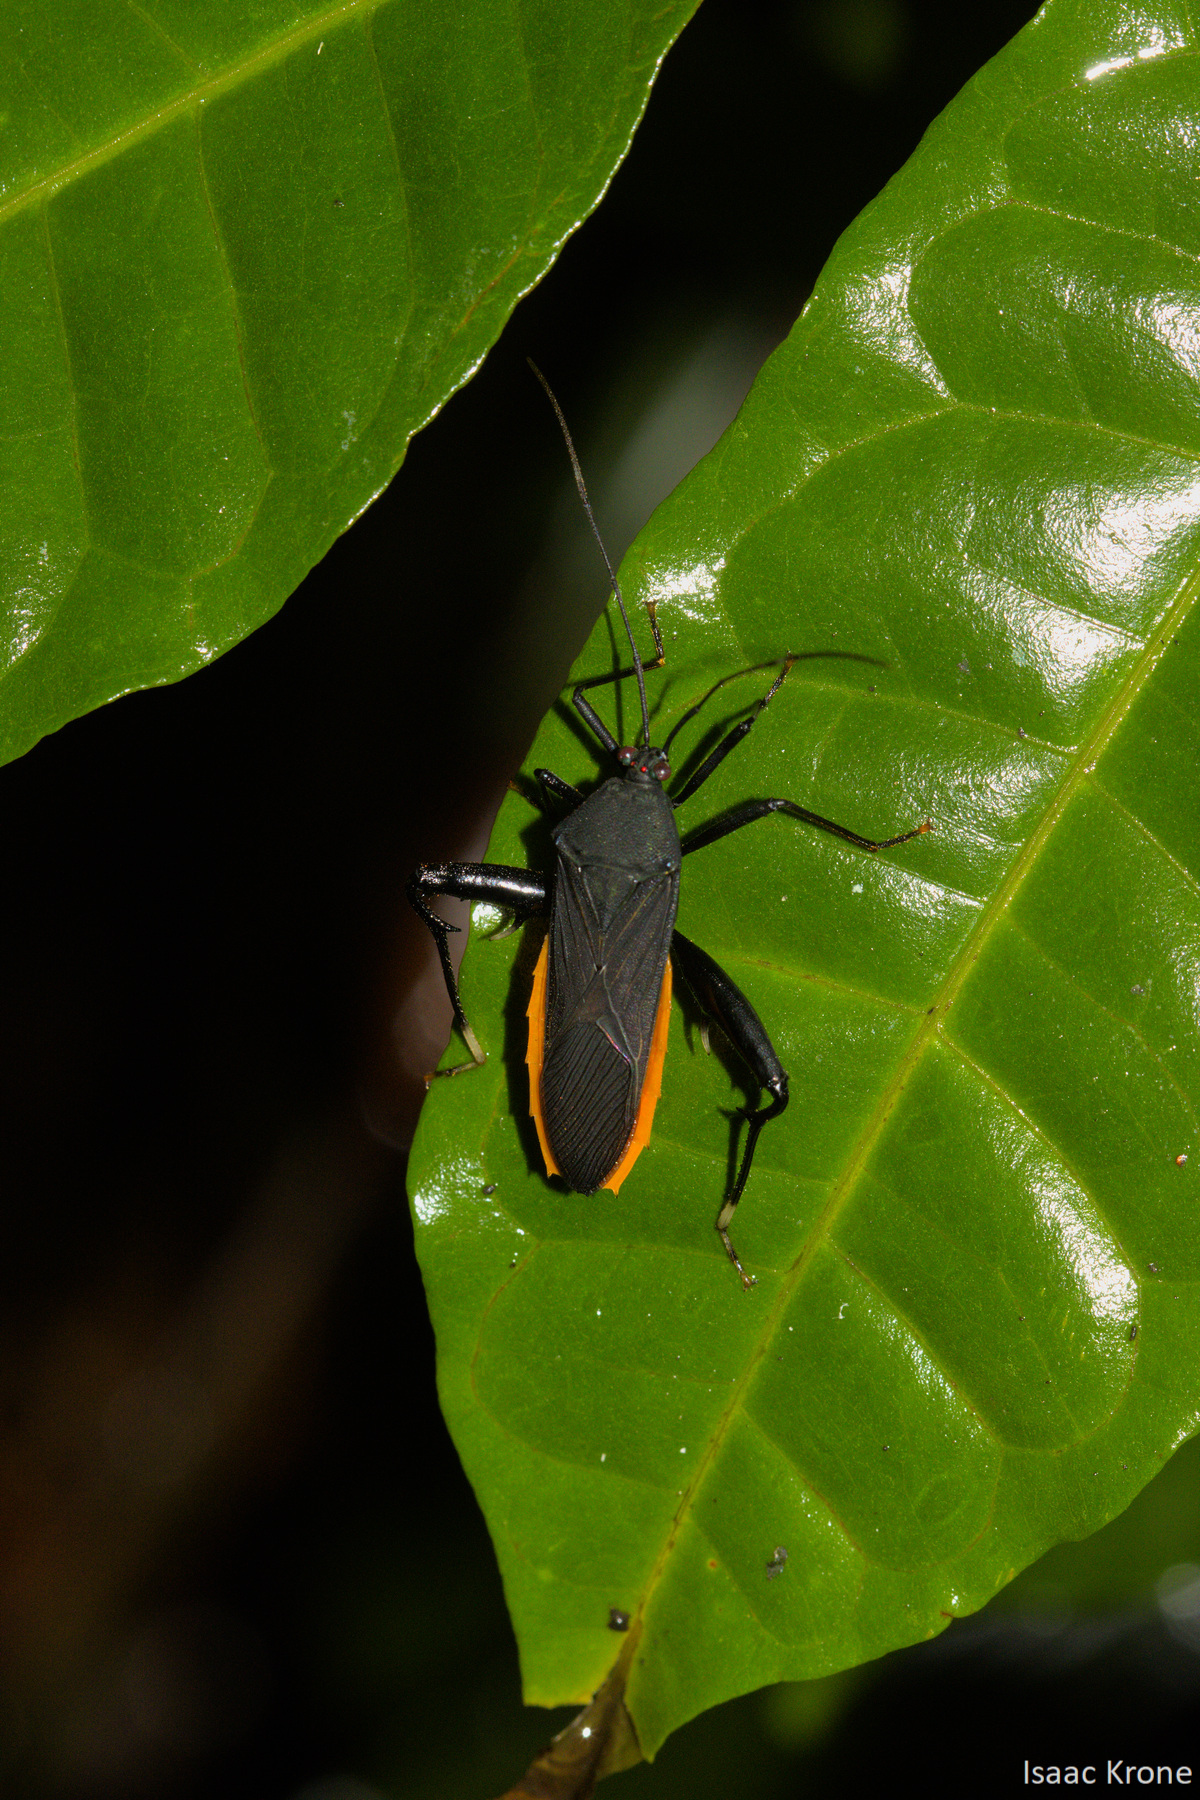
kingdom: Animalia
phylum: Arthropoda
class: Insecta
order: Hemiptera
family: Coreidae
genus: Nematopus
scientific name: Nematopus indus
